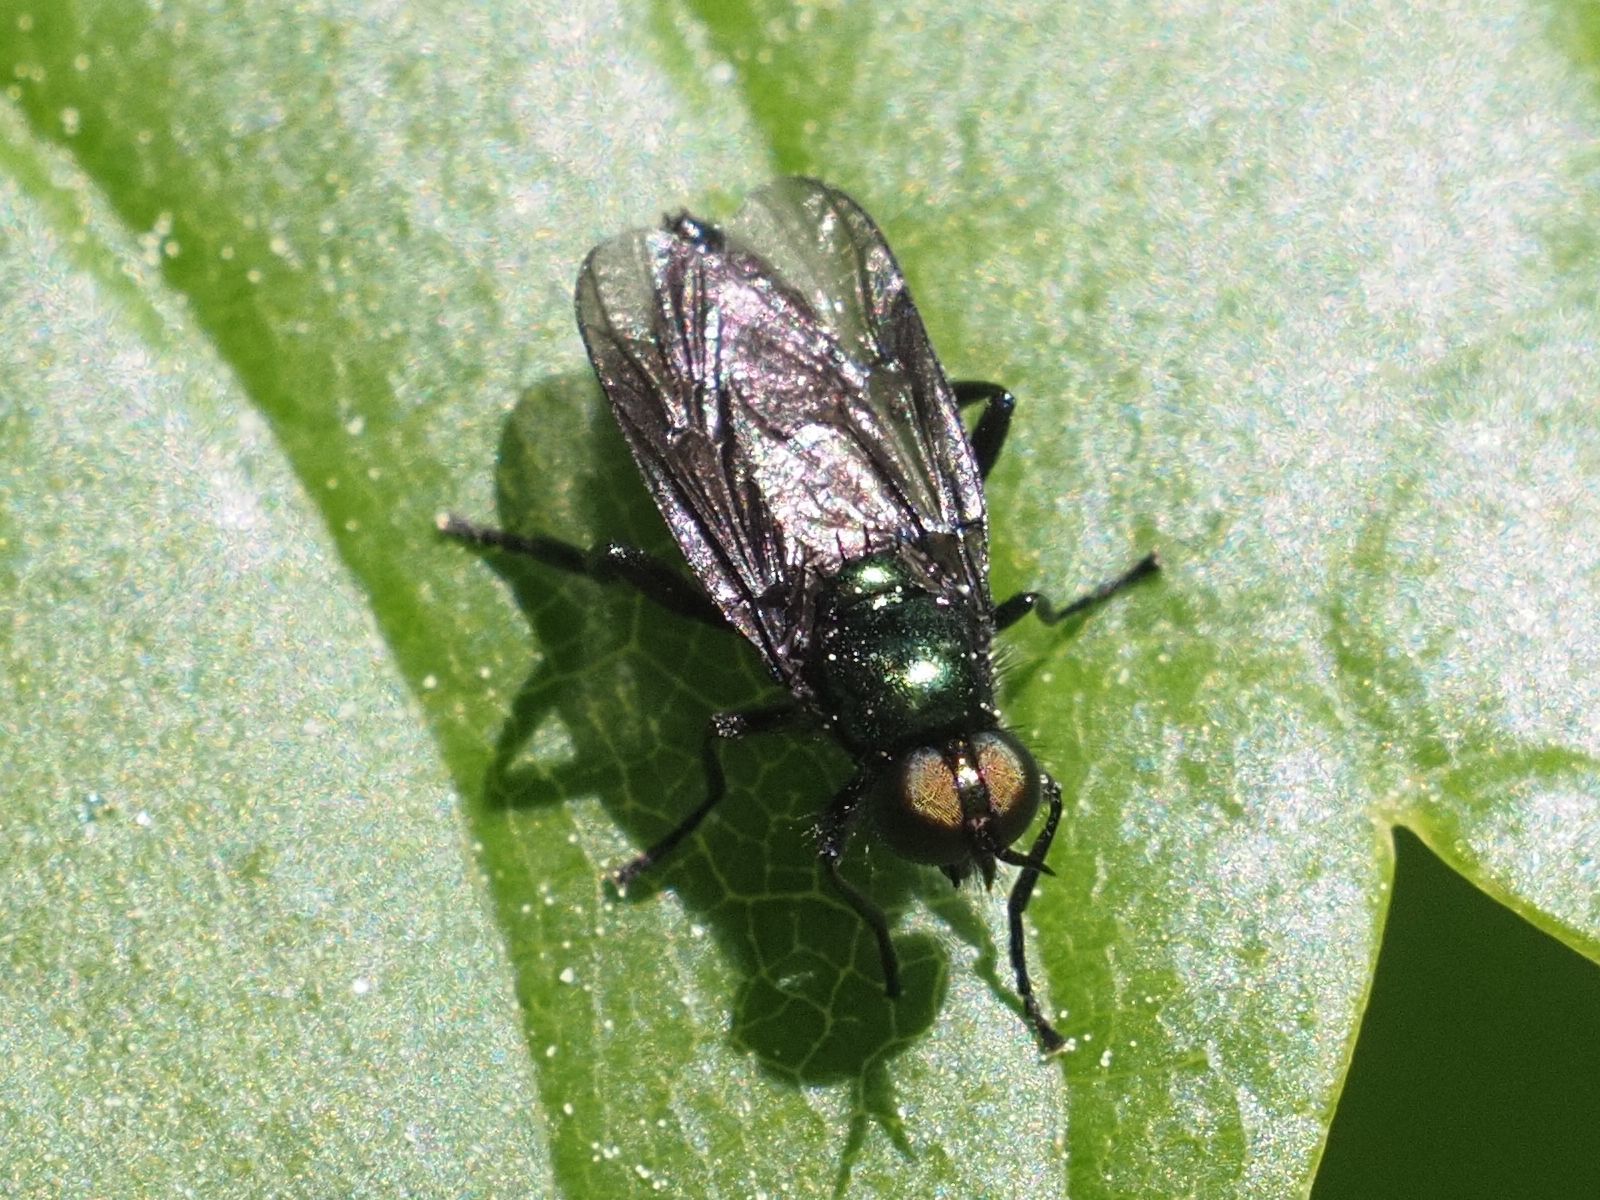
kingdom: Animalia
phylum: Arthropoda
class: Insecta
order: Diptera
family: Stratiomyidae
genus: Actina
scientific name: Actina chalybea
